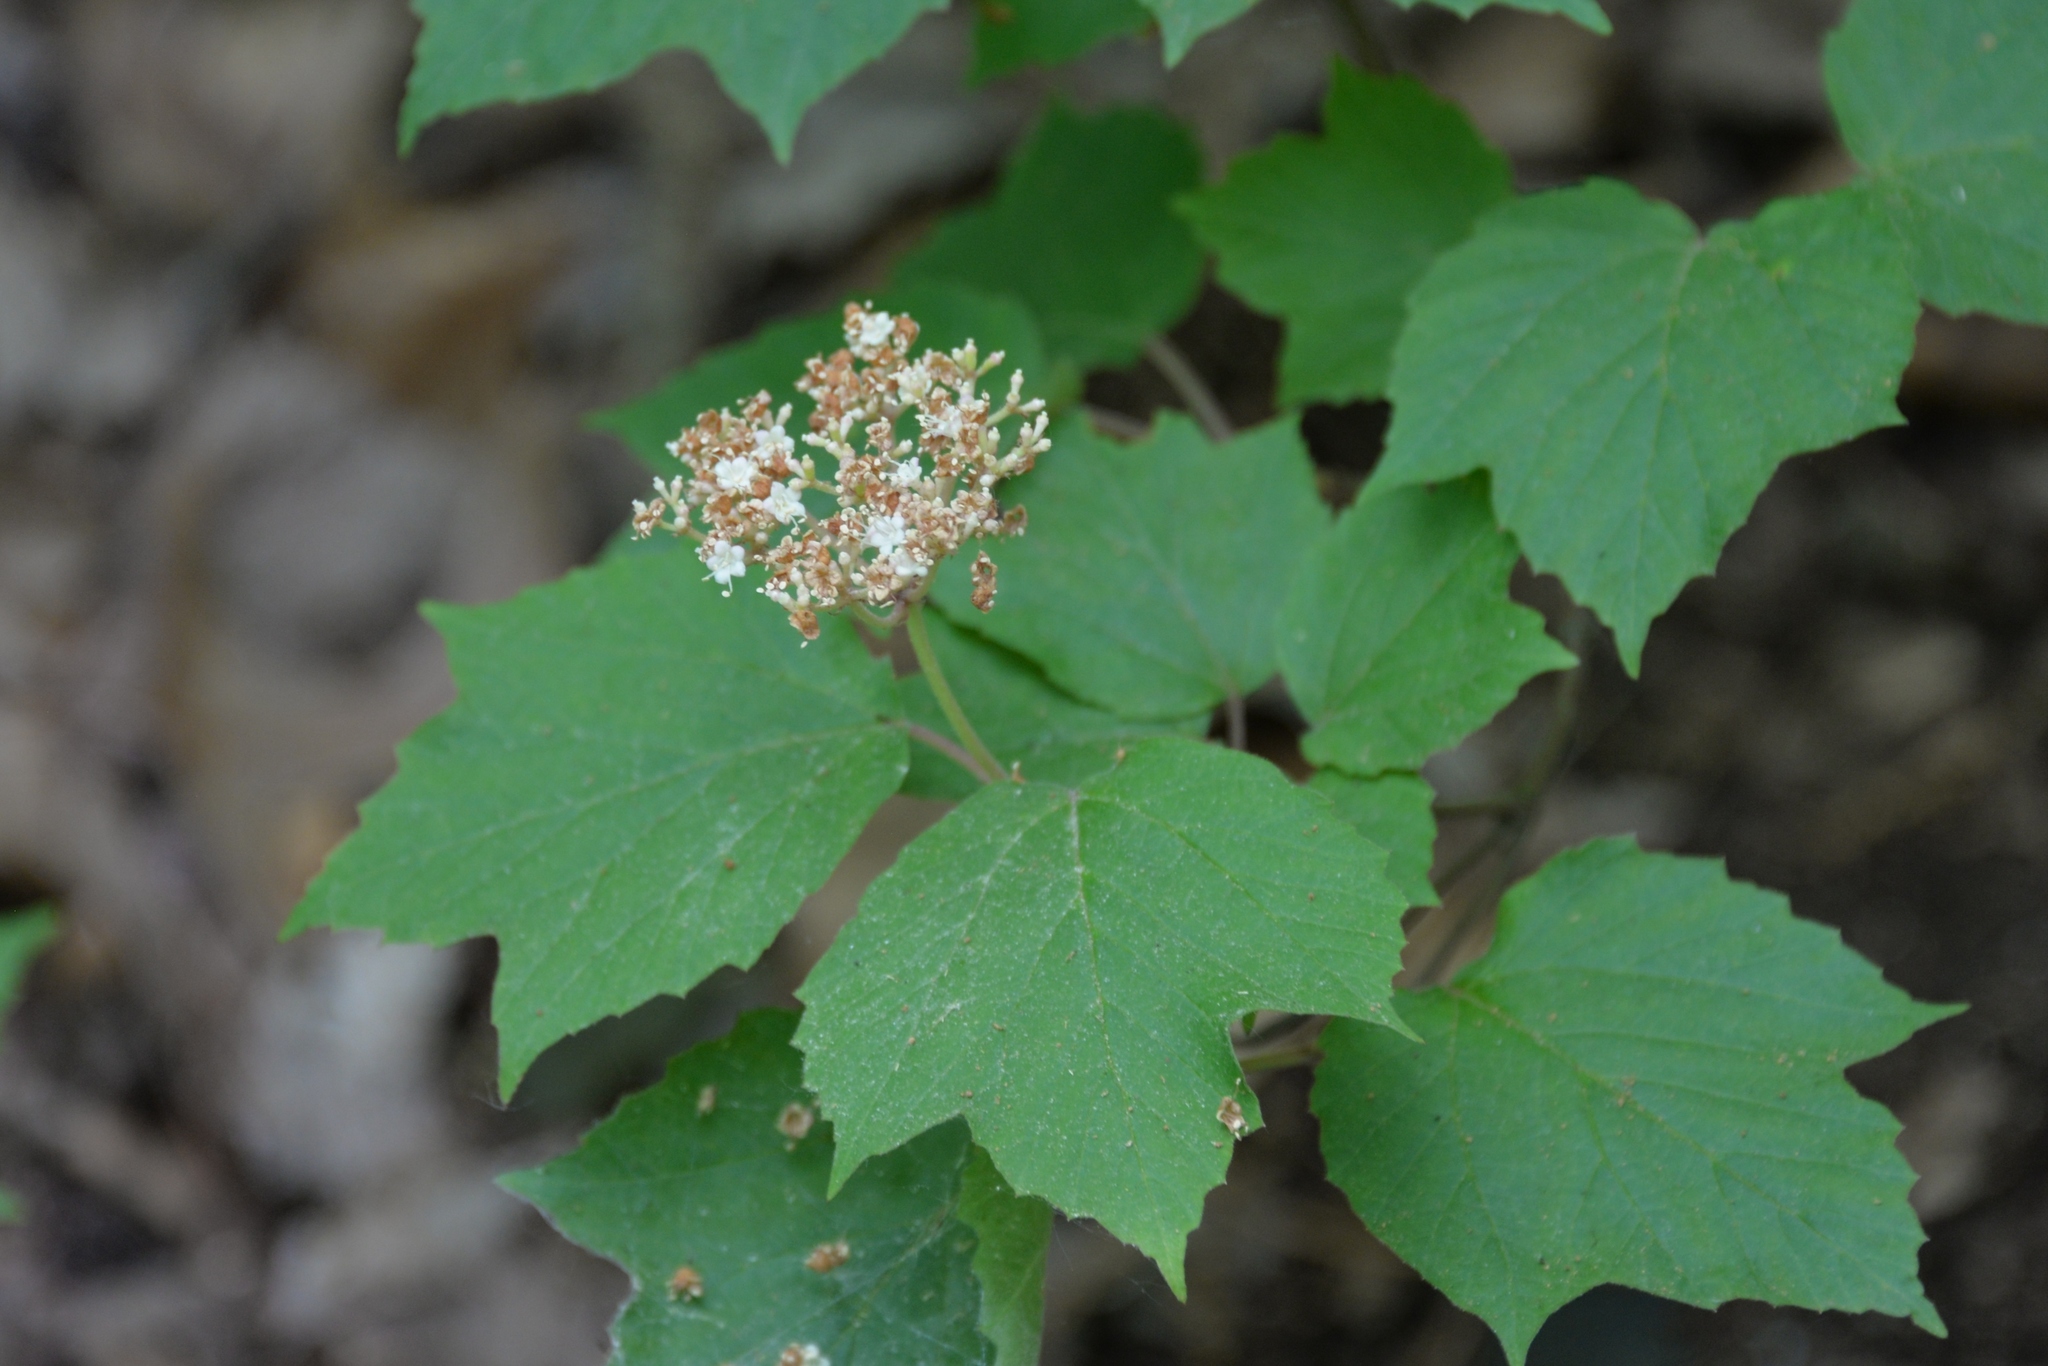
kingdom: Plantae
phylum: Tracheophyta
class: Magnoliopsida
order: Dipsacales
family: Viburnaceae
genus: Viburnum
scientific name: Viburnum acerifolium
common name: Dockmackie
